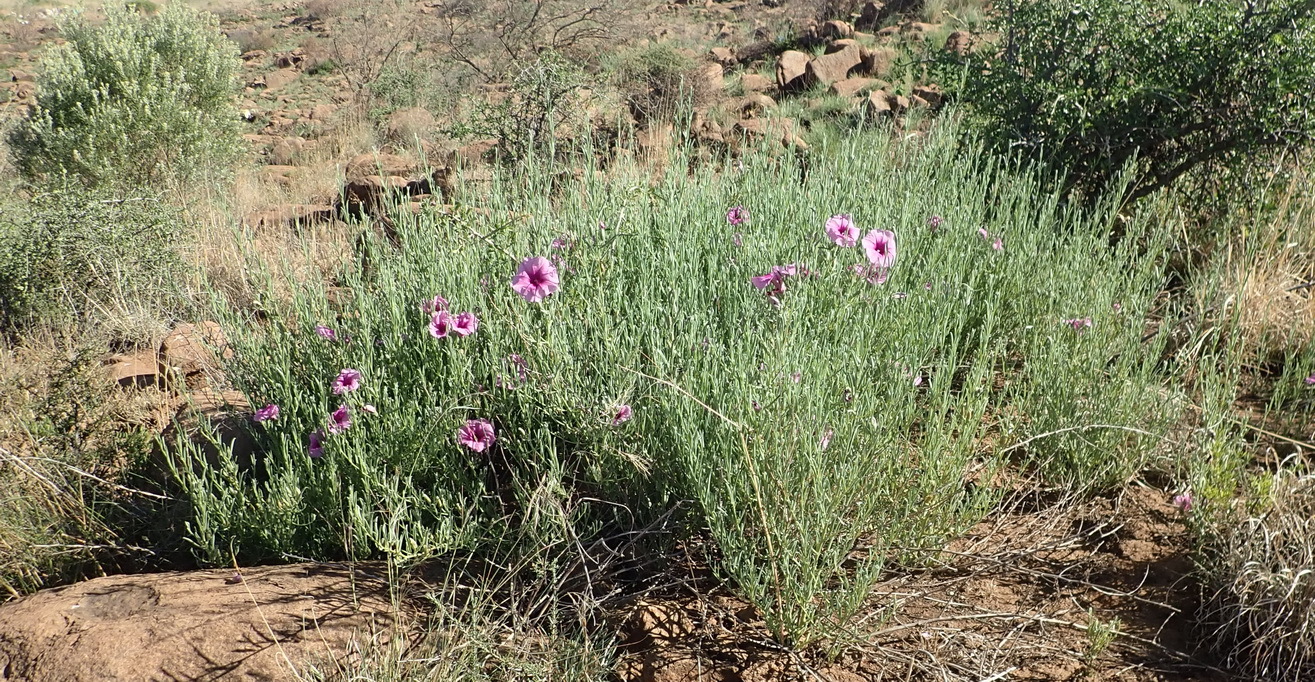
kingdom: Plantae
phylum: Tracheophyta
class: Magnoliopsida
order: Solanales
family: Convolvulaceae
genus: Ipomoea
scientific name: Ipomoea oenotheroides
